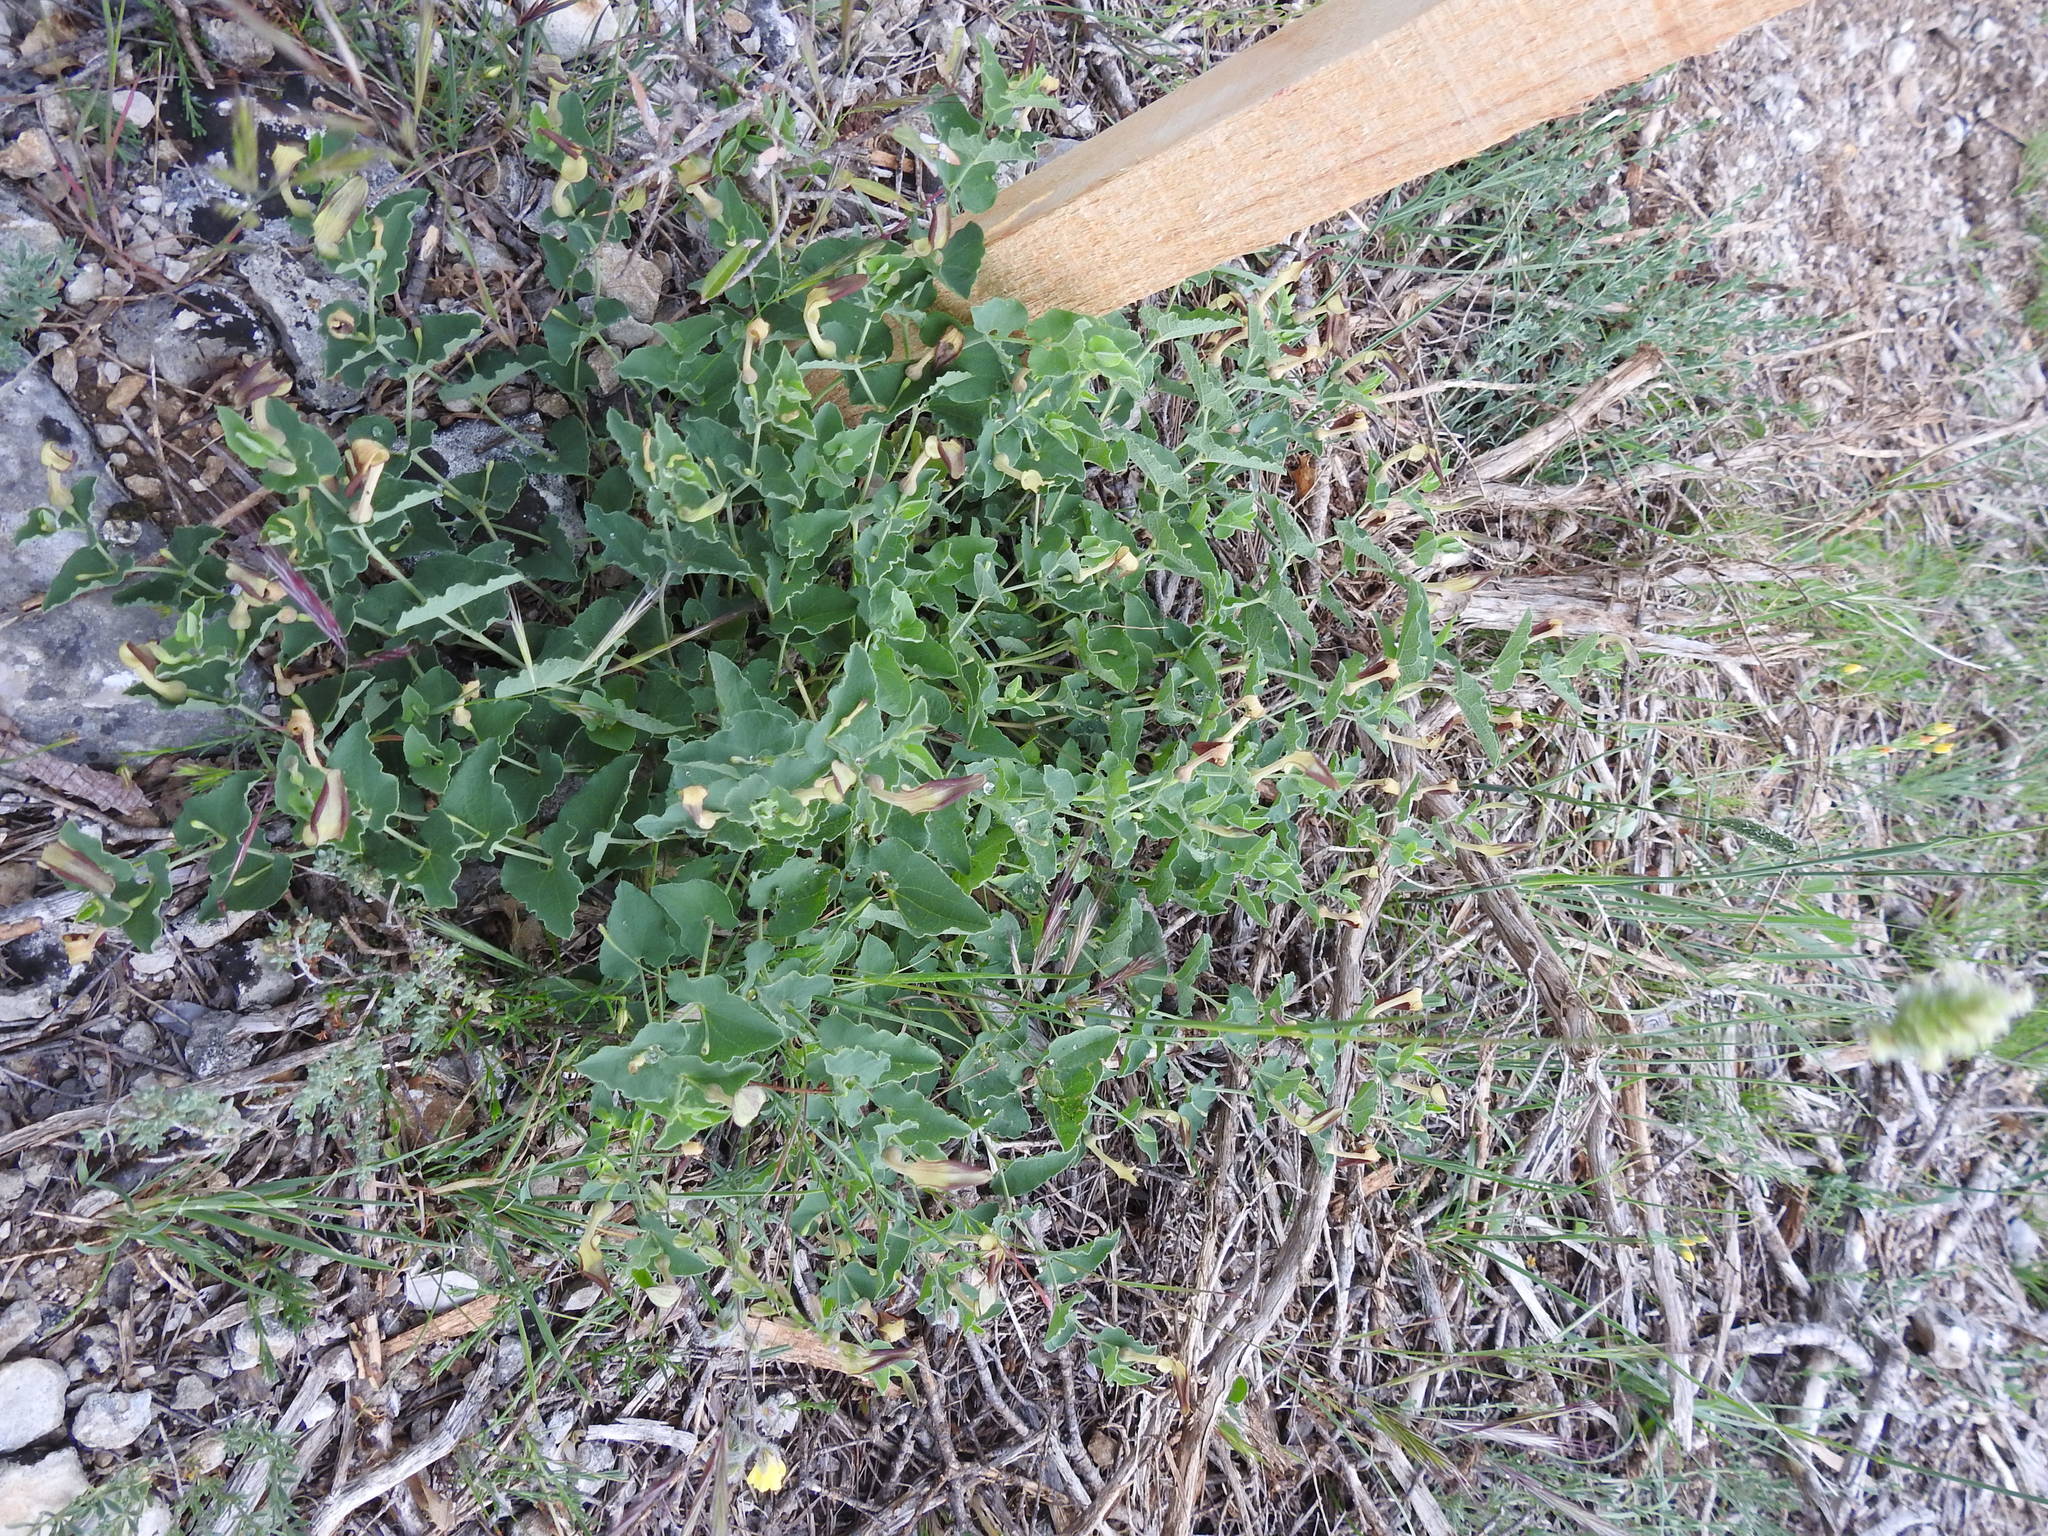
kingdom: Plantae
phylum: Tracheophyta
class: Magnoliopsida
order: Piperales
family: Aristolochiaceae
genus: Aristolochia
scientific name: Aristolochia pistolochia
